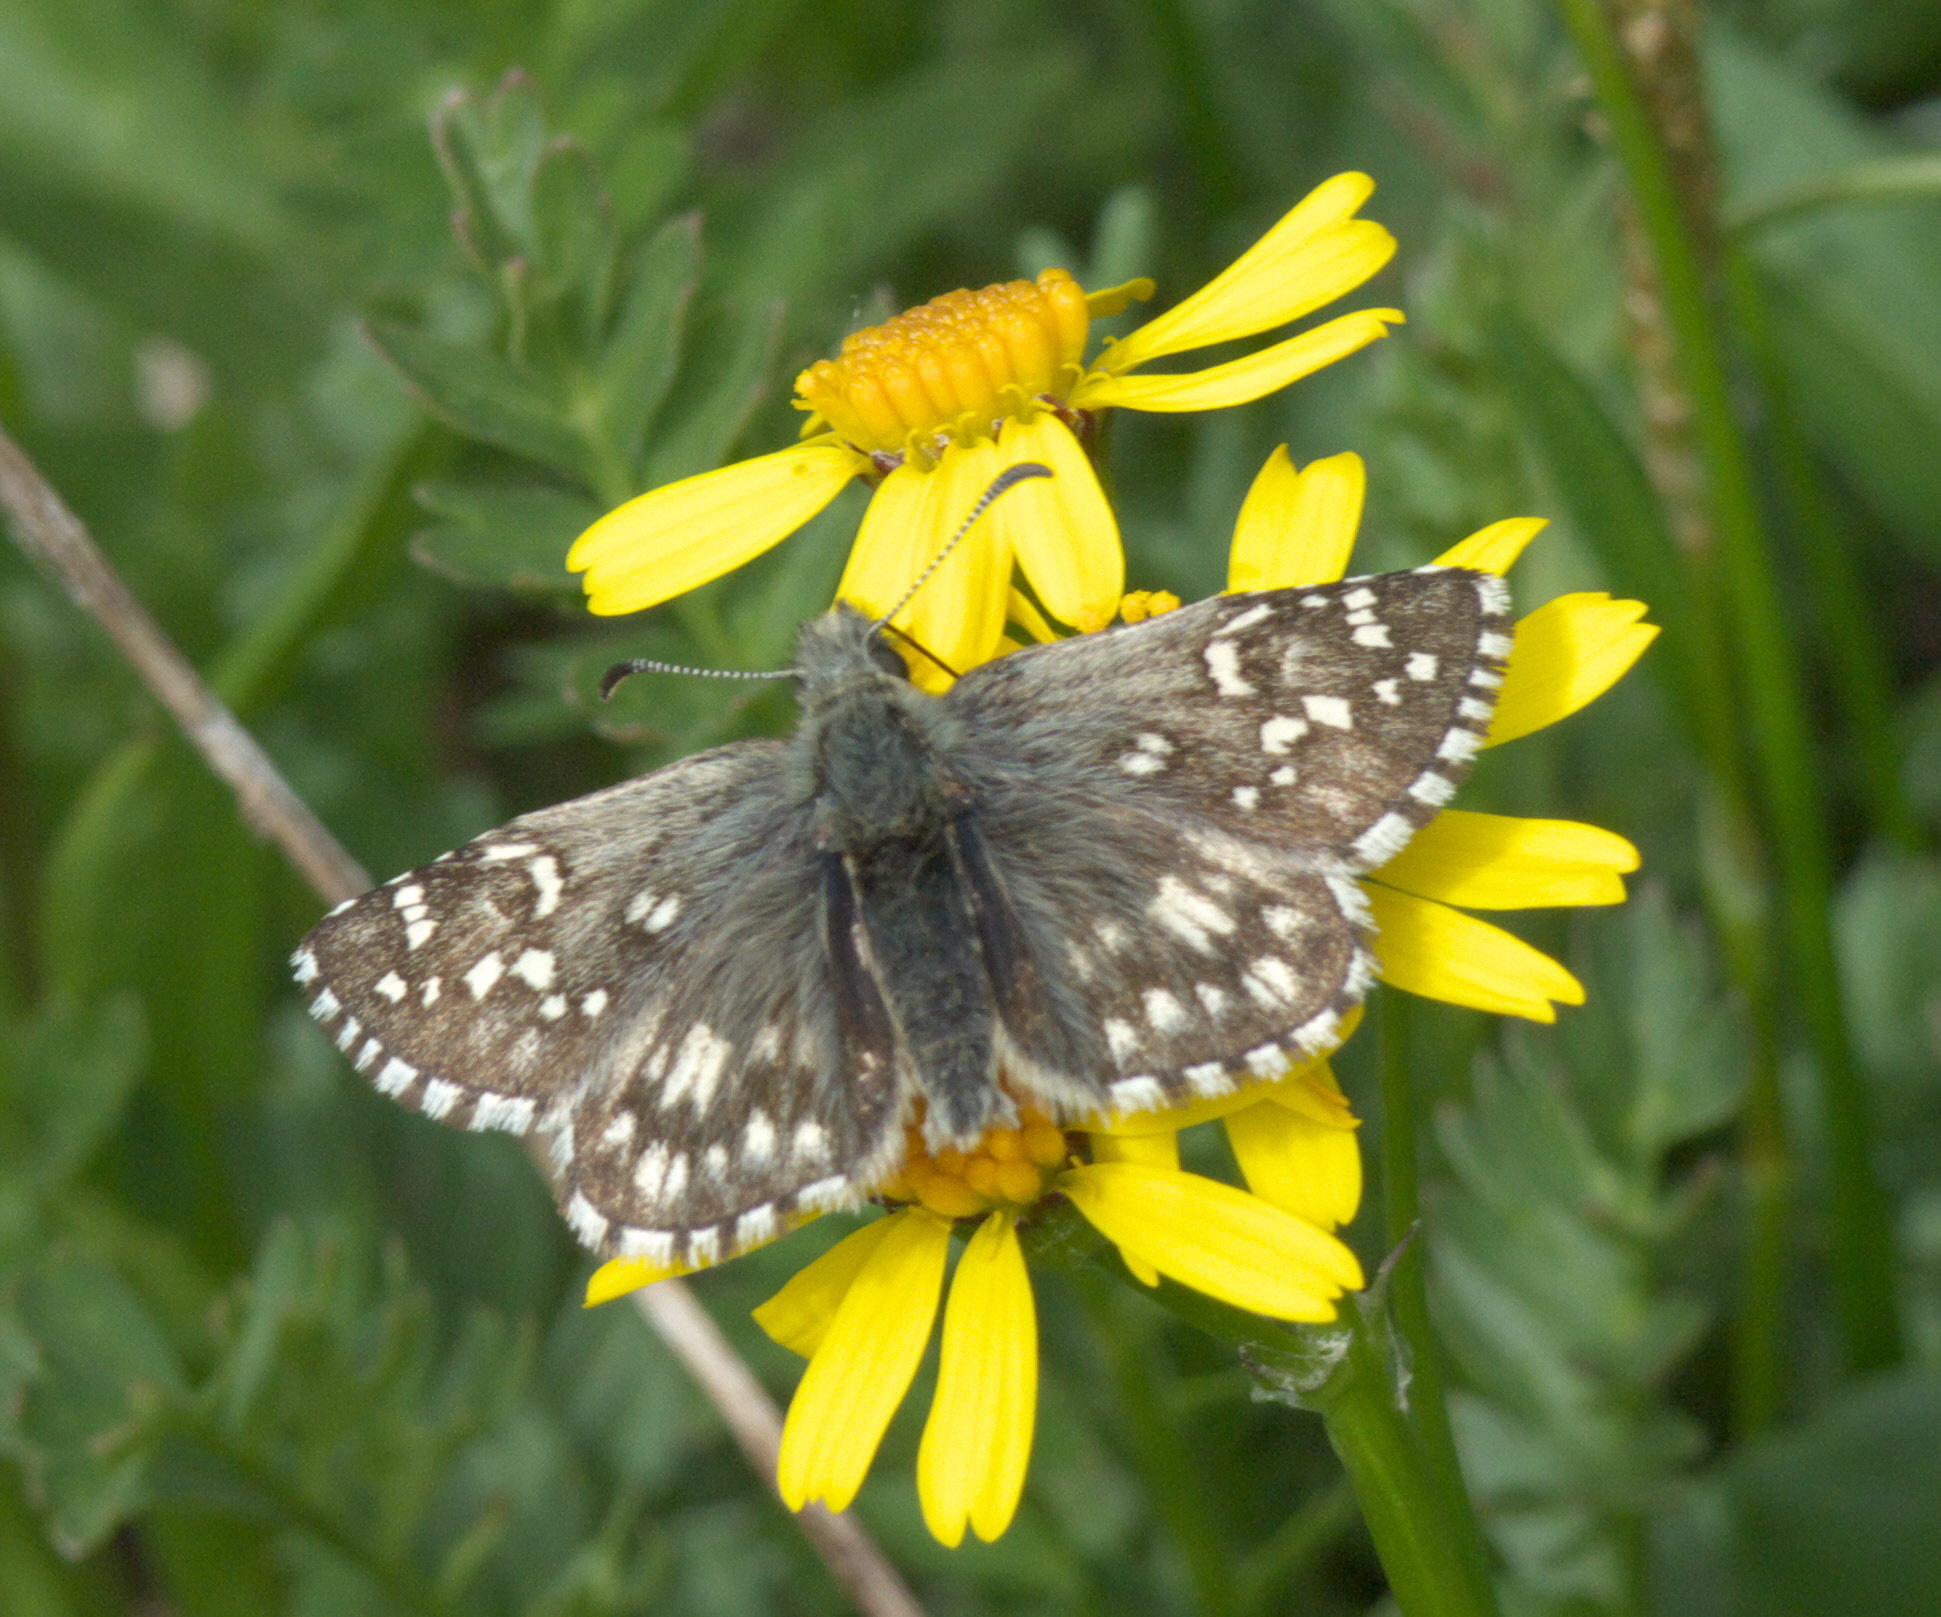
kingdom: Animalia
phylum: Arthropoda
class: Insecta
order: Lepidoptera
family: Hesperiidae
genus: Pyrgus
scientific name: Pyrgus centaureae
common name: Northern grizzled skipper
